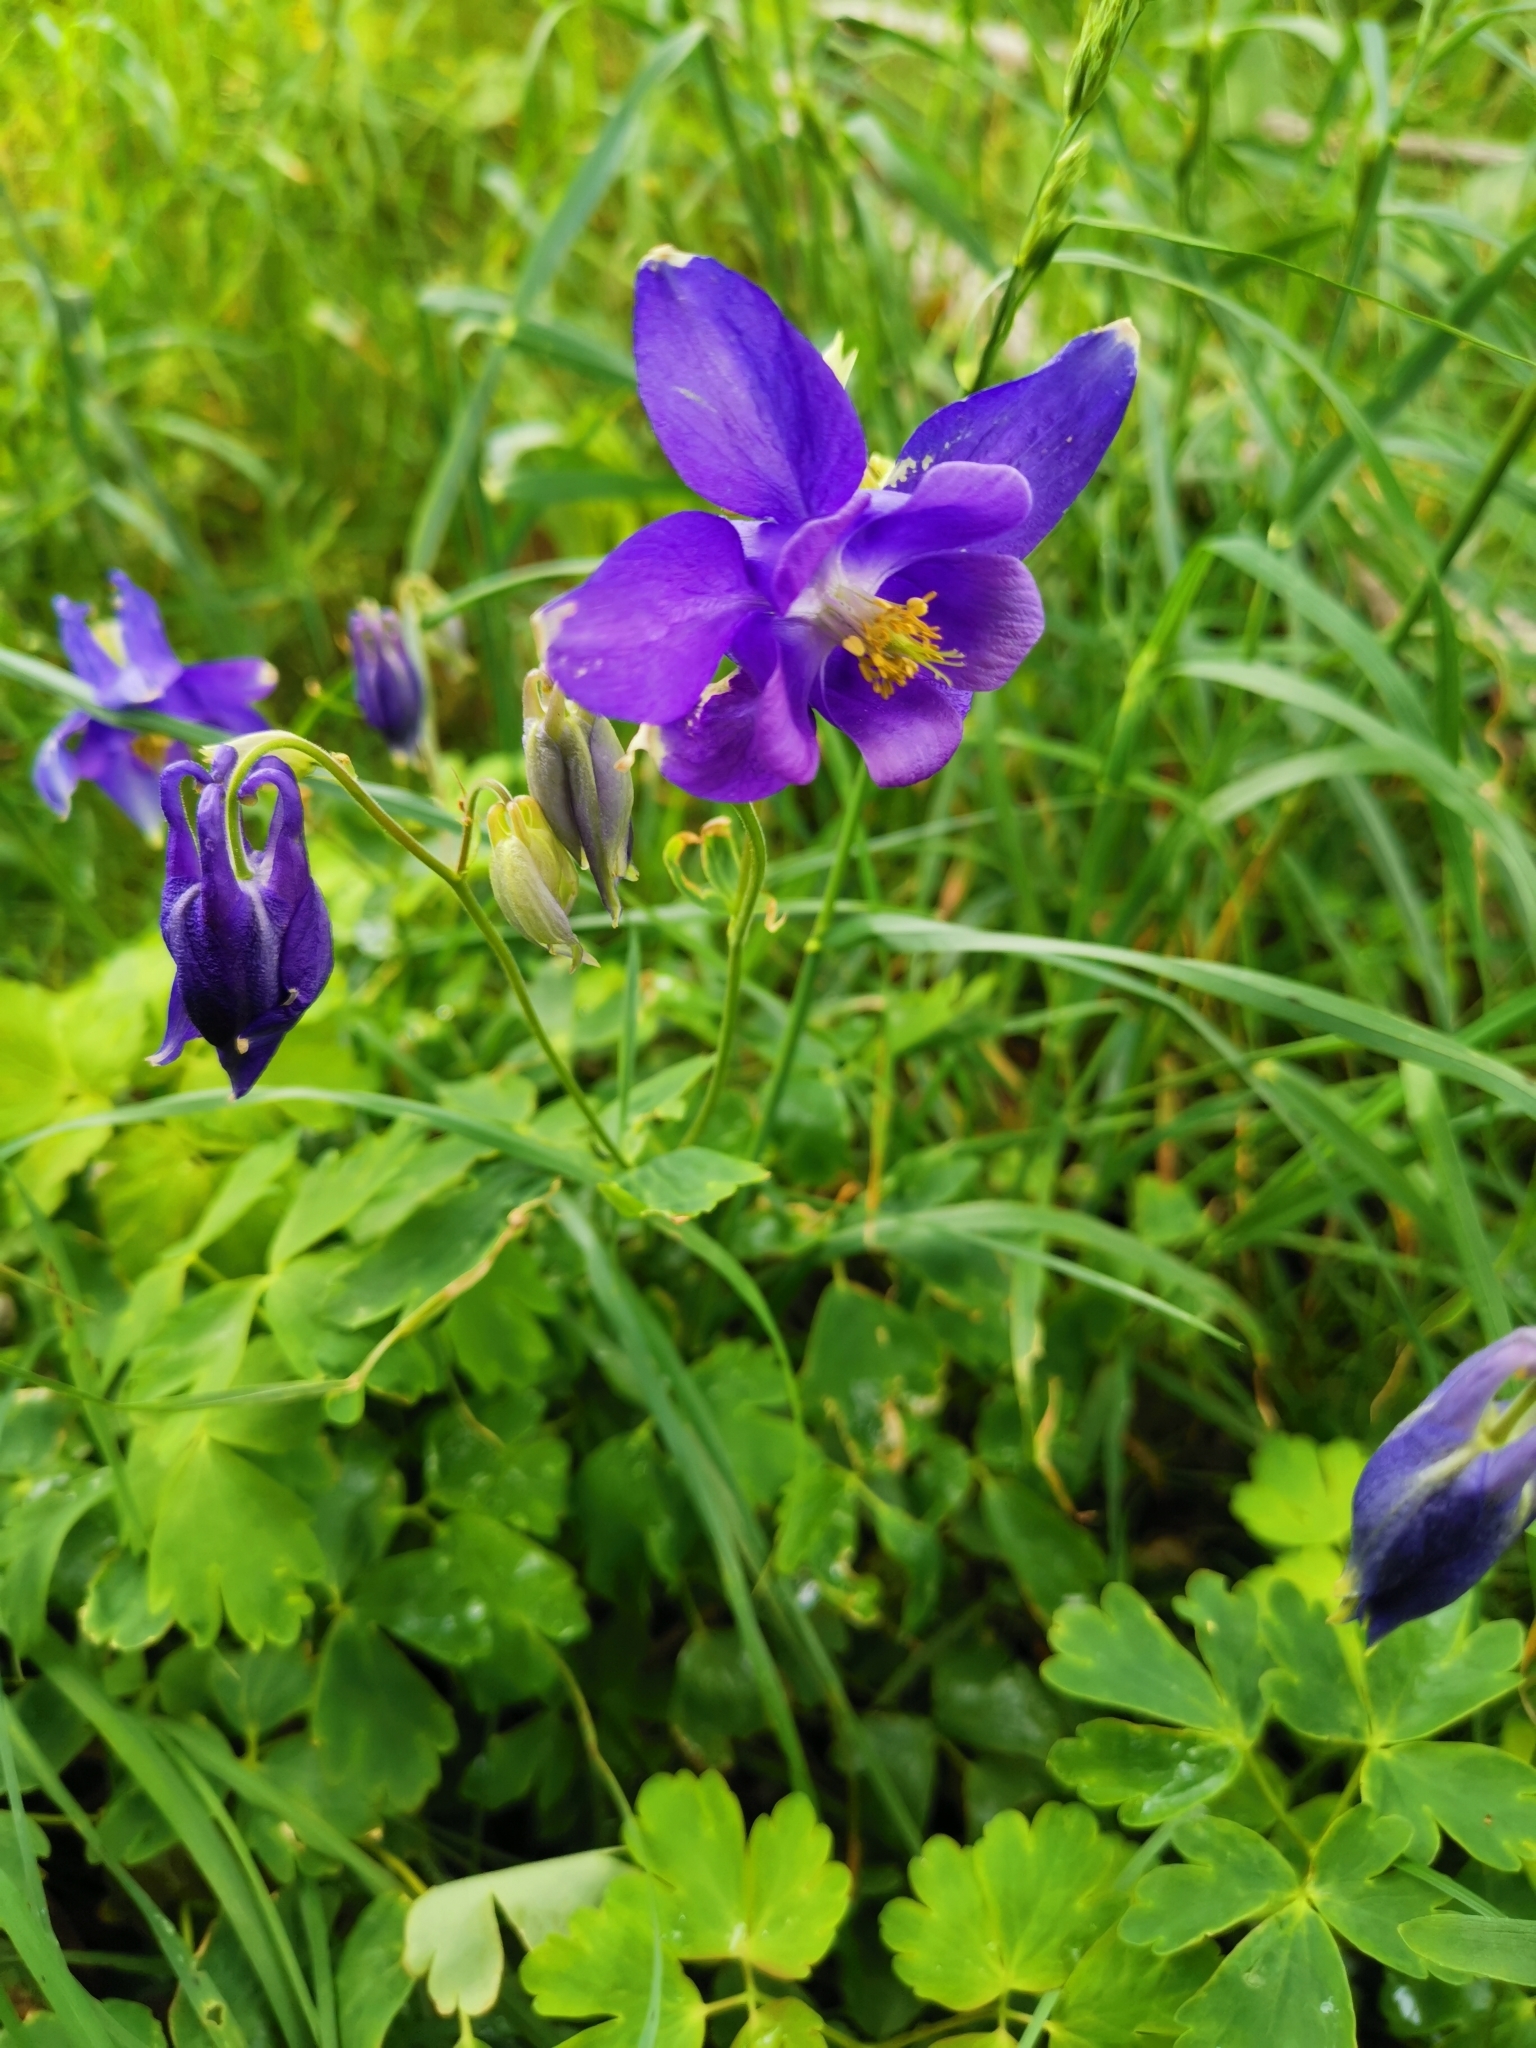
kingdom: Plantae
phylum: Tracheophyta
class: Magnoliopsida
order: Ranunculales
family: Ranunculaceae
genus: Aquilegia
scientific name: Aquilegia vulgaris
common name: Columbine
